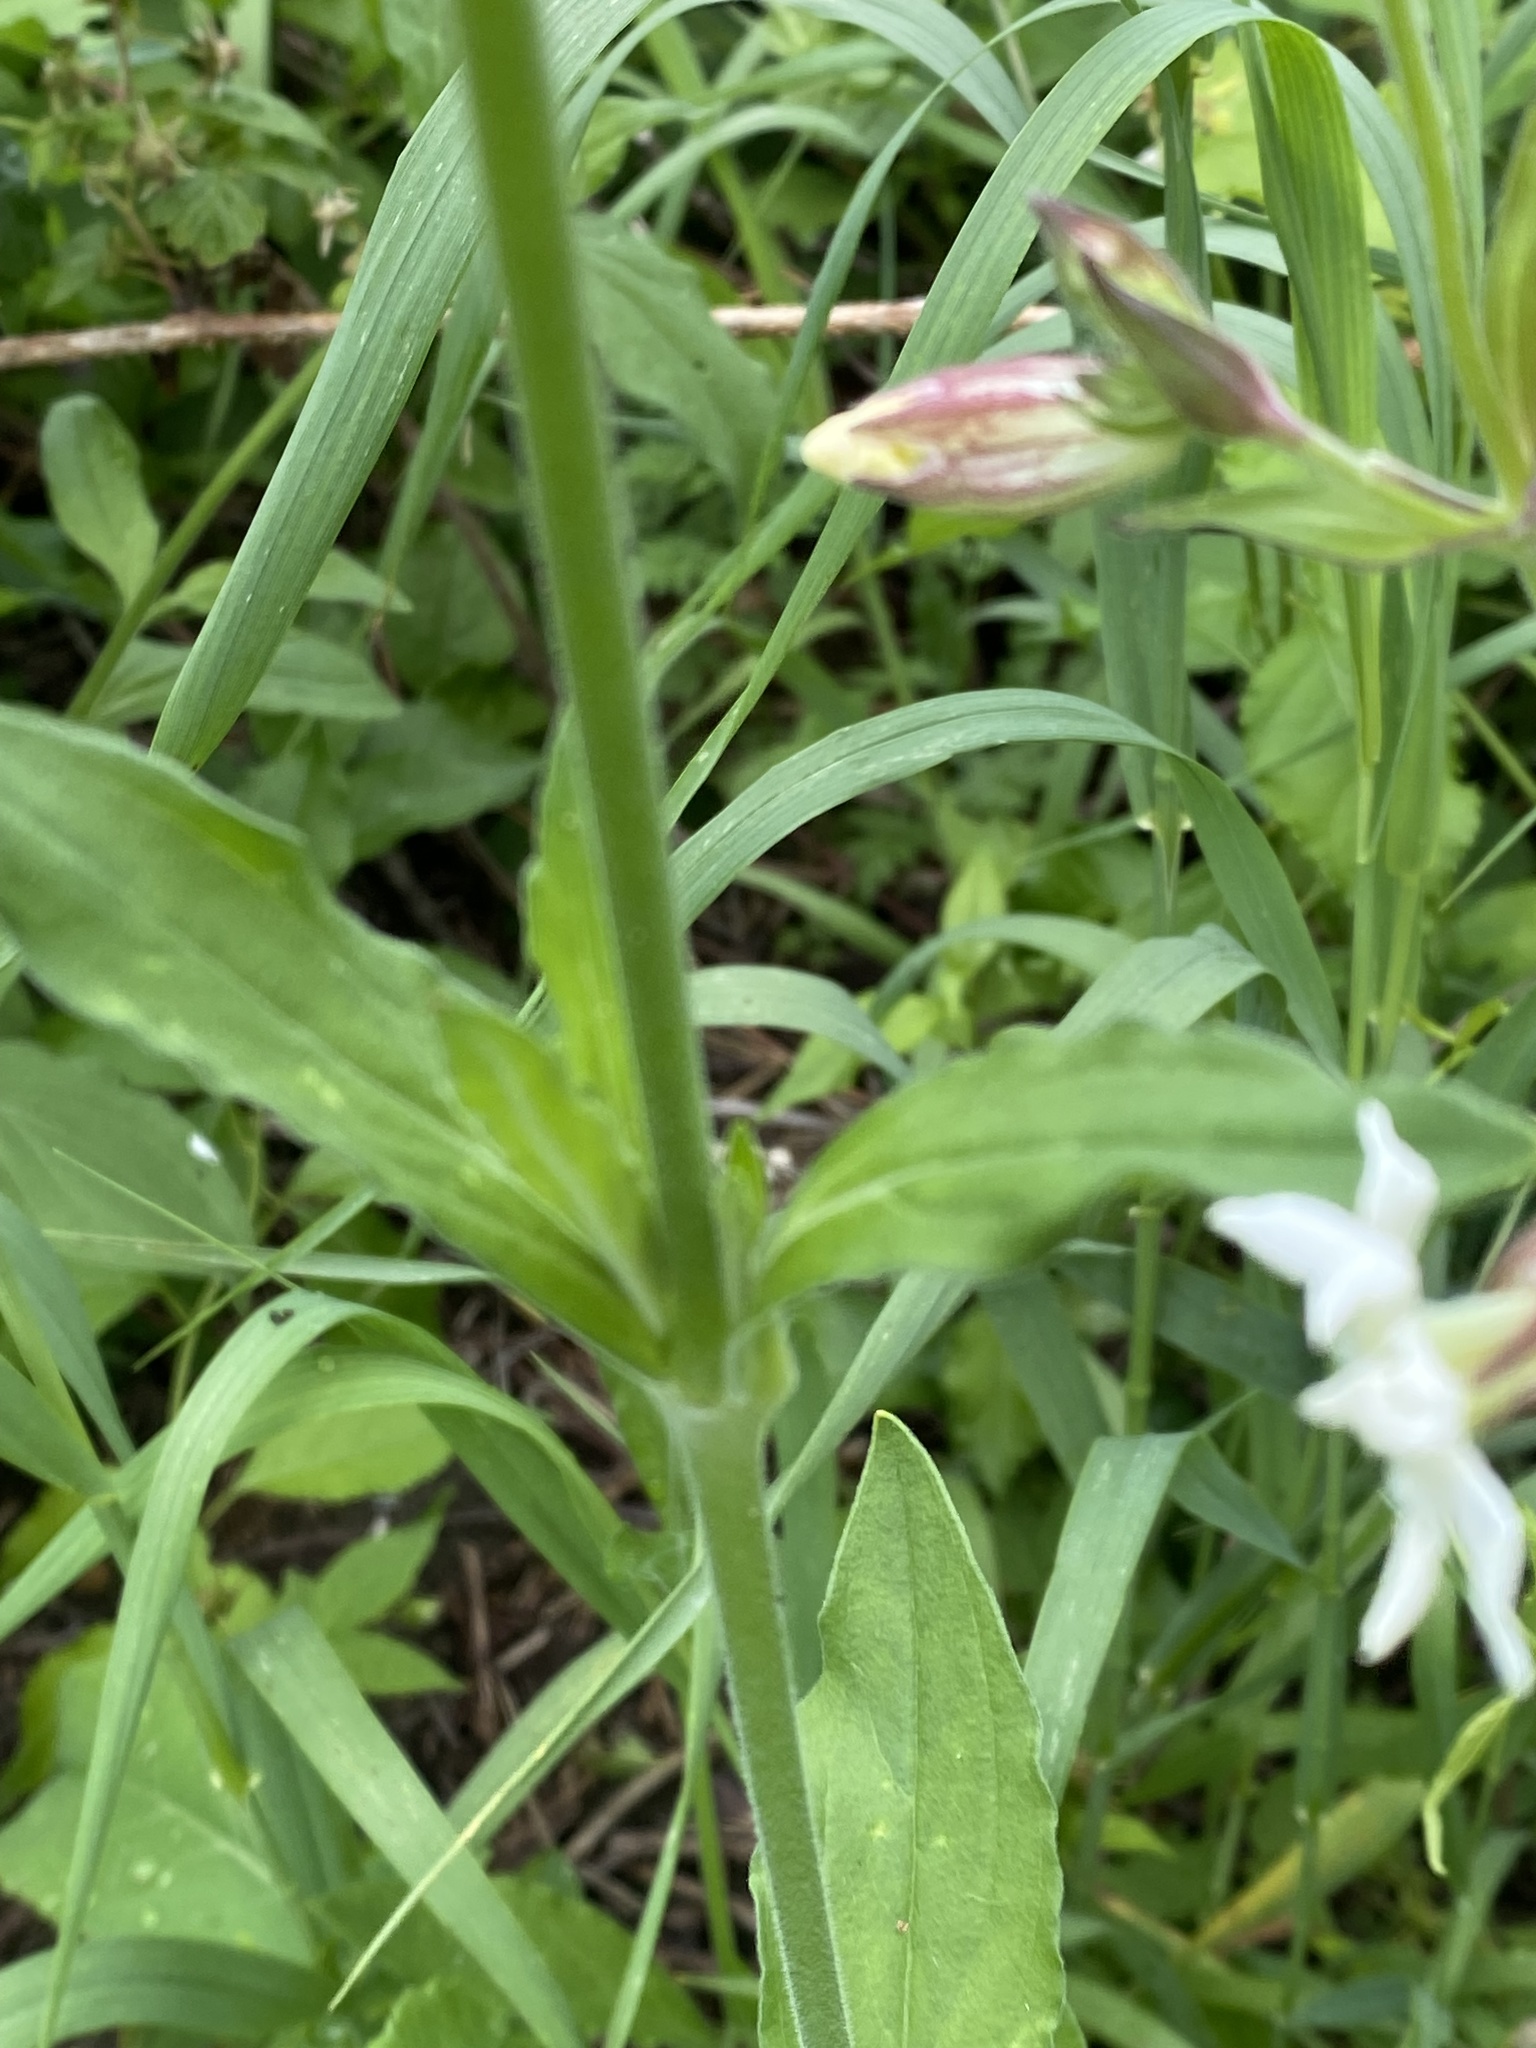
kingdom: Plantae
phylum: Tracheophyta
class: Magnoliopsida
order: Caryophyllales
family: Caryophyllaceae
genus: Silene
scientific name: Silene latifolia
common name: White campion
